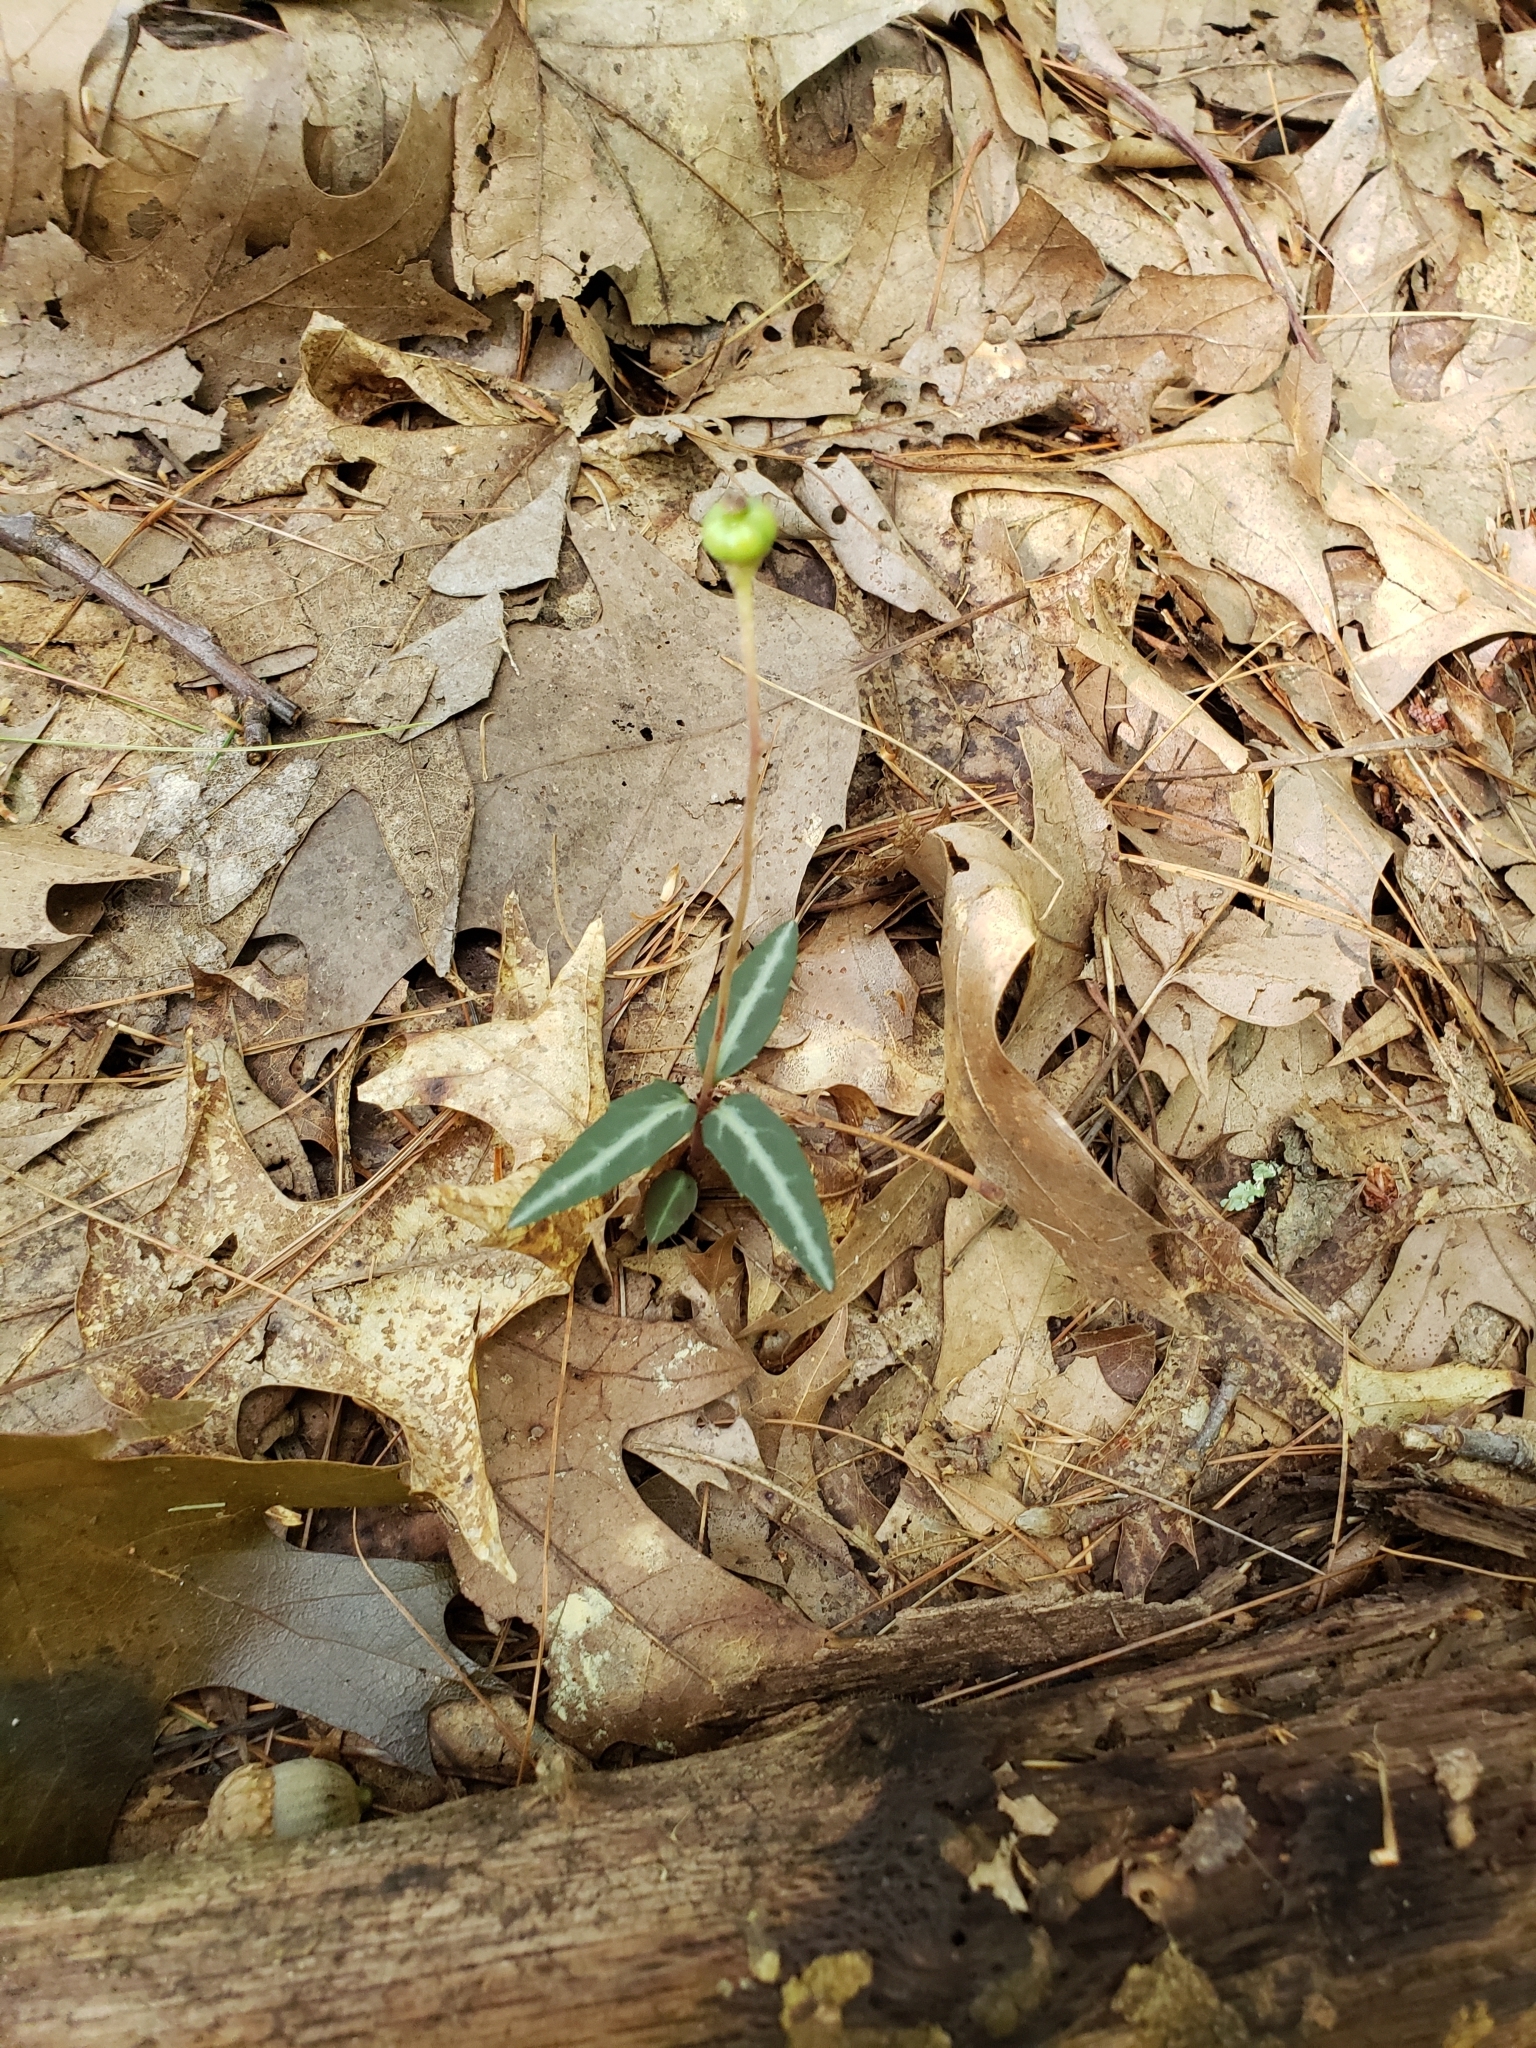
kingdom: Plantae
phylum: Tracheophyta
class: Magnoliopsida
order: Ericales
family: Ericaceae
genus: Chimaphila
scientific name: Chimaphila maculata
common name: Spotted pipsissewa
